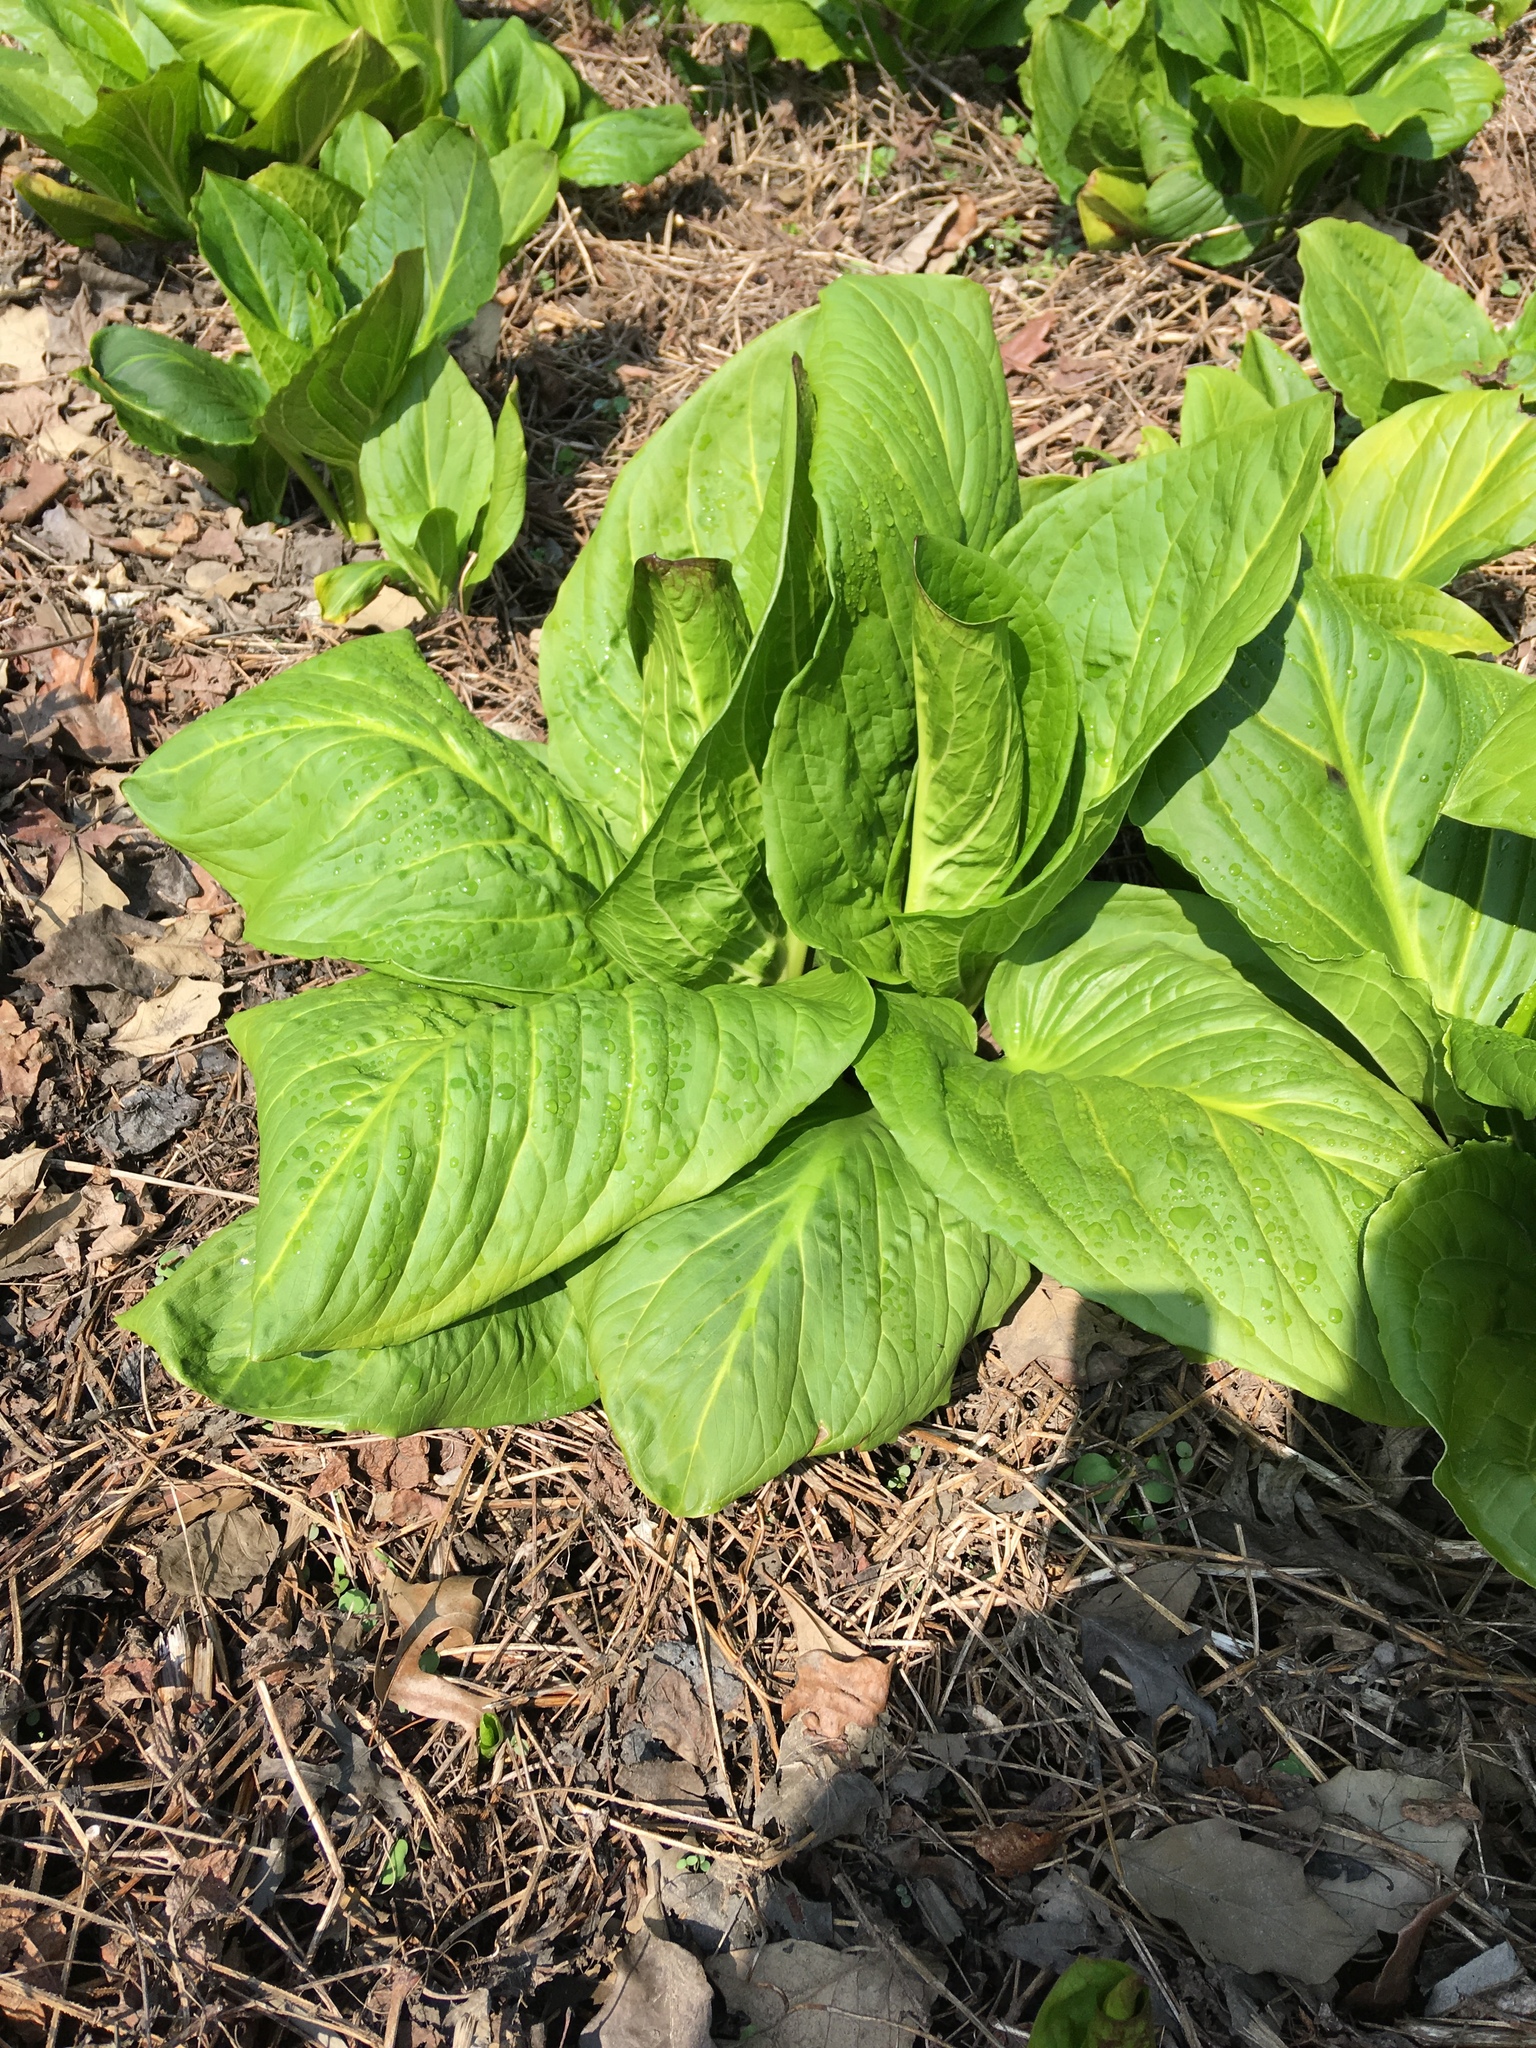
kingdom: Plantae
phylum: Tracheophyta
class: Liliopsida
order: Alismatales
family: Araceae
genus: Symplocarpus
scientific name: Symplocarpus foetidus
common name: Eastern skunk cabbage
